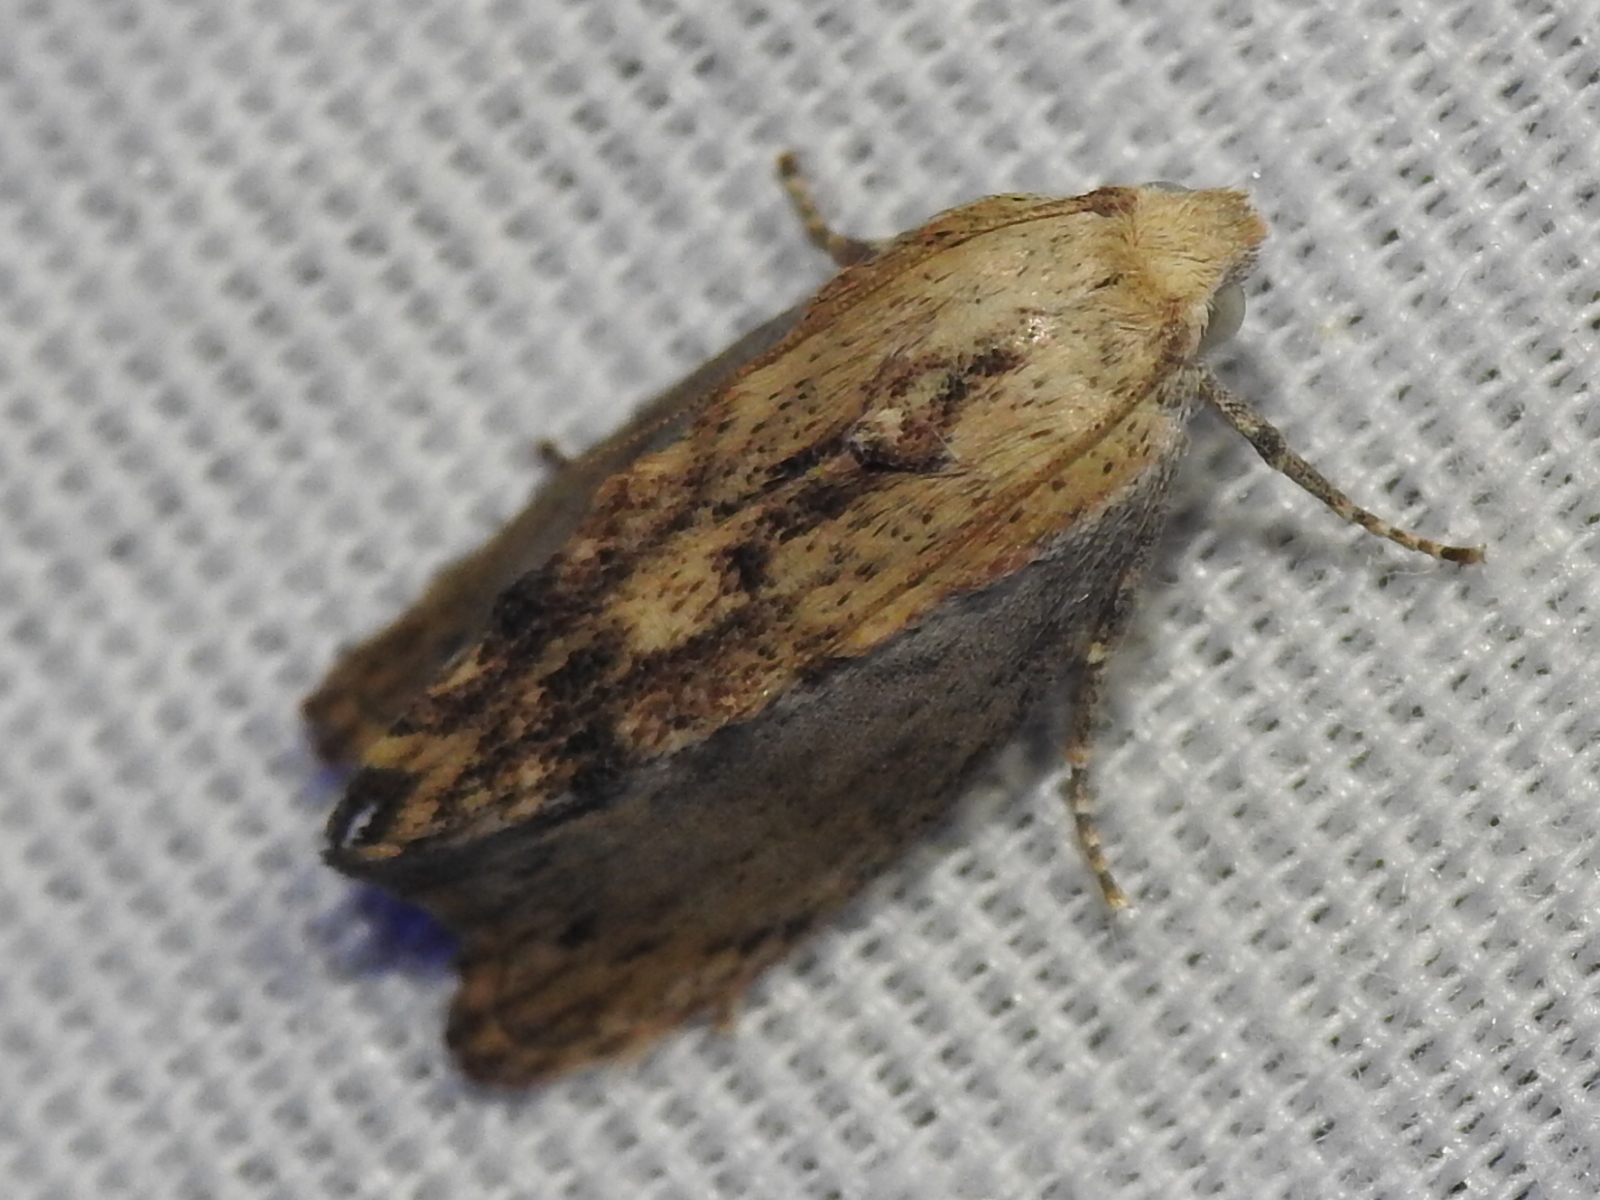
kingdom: Animalia
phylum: Arthropoda
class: Insecta
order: Lepidoptera
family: Pyralidae
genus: Galleria
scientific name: Galleria mellonella
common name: Greater wax moth
